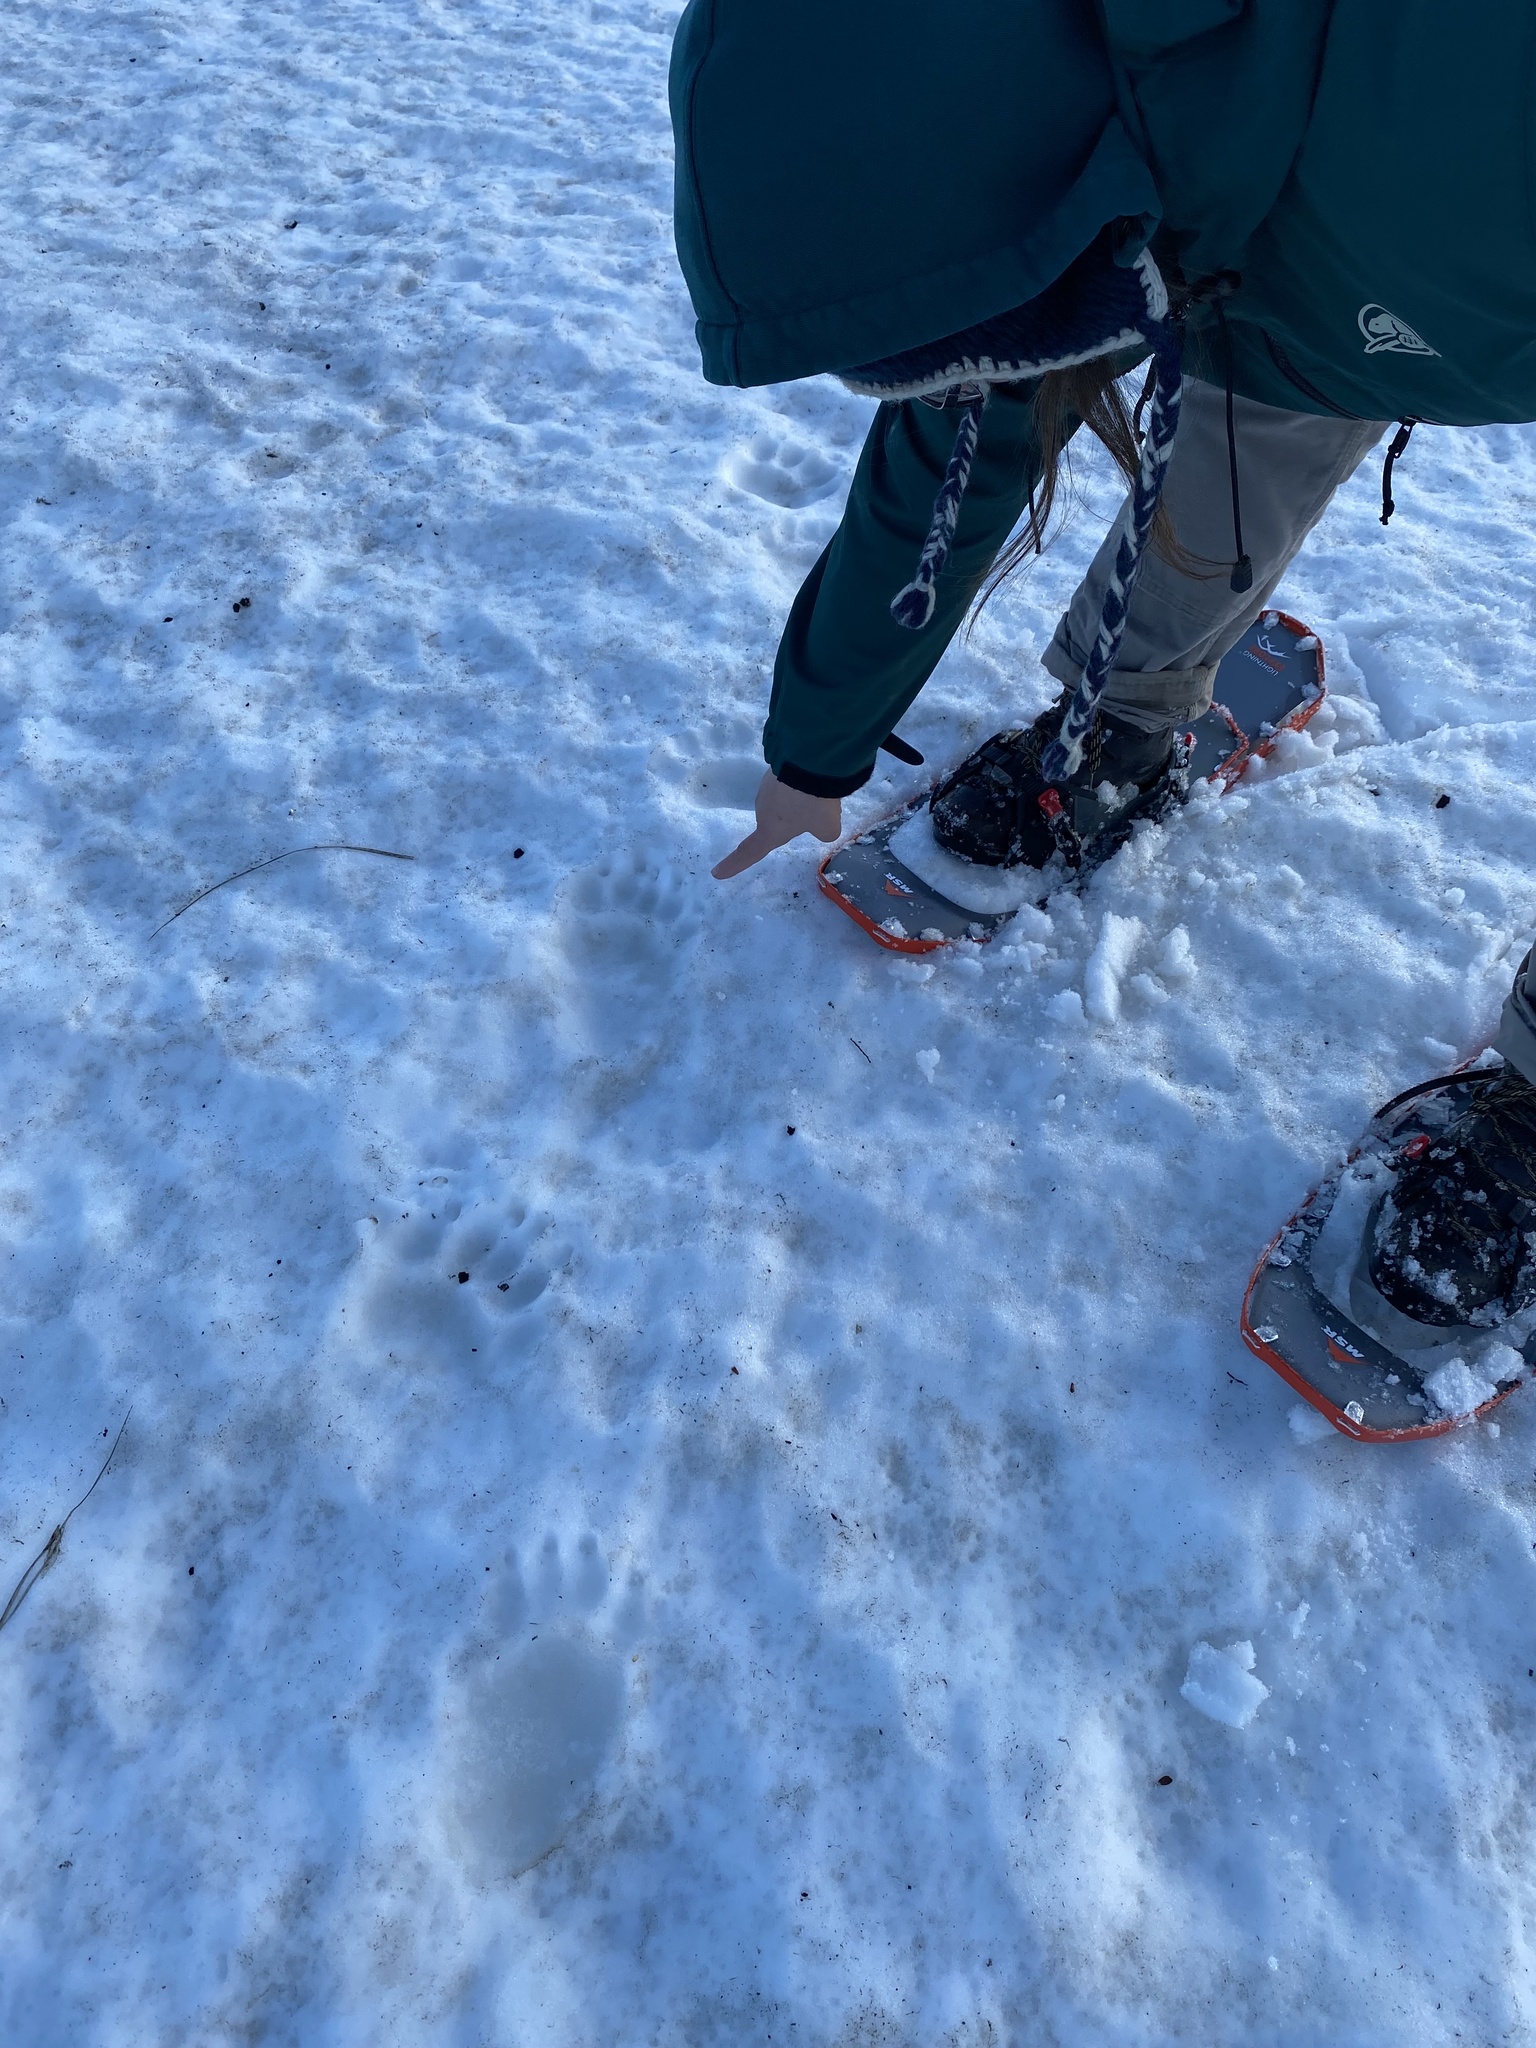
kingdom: Animalia
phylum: Chordata
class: Mammalia
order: Carnivora
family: Ursidae
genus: Ursus
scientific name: Ursus americanus
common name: American black bear
